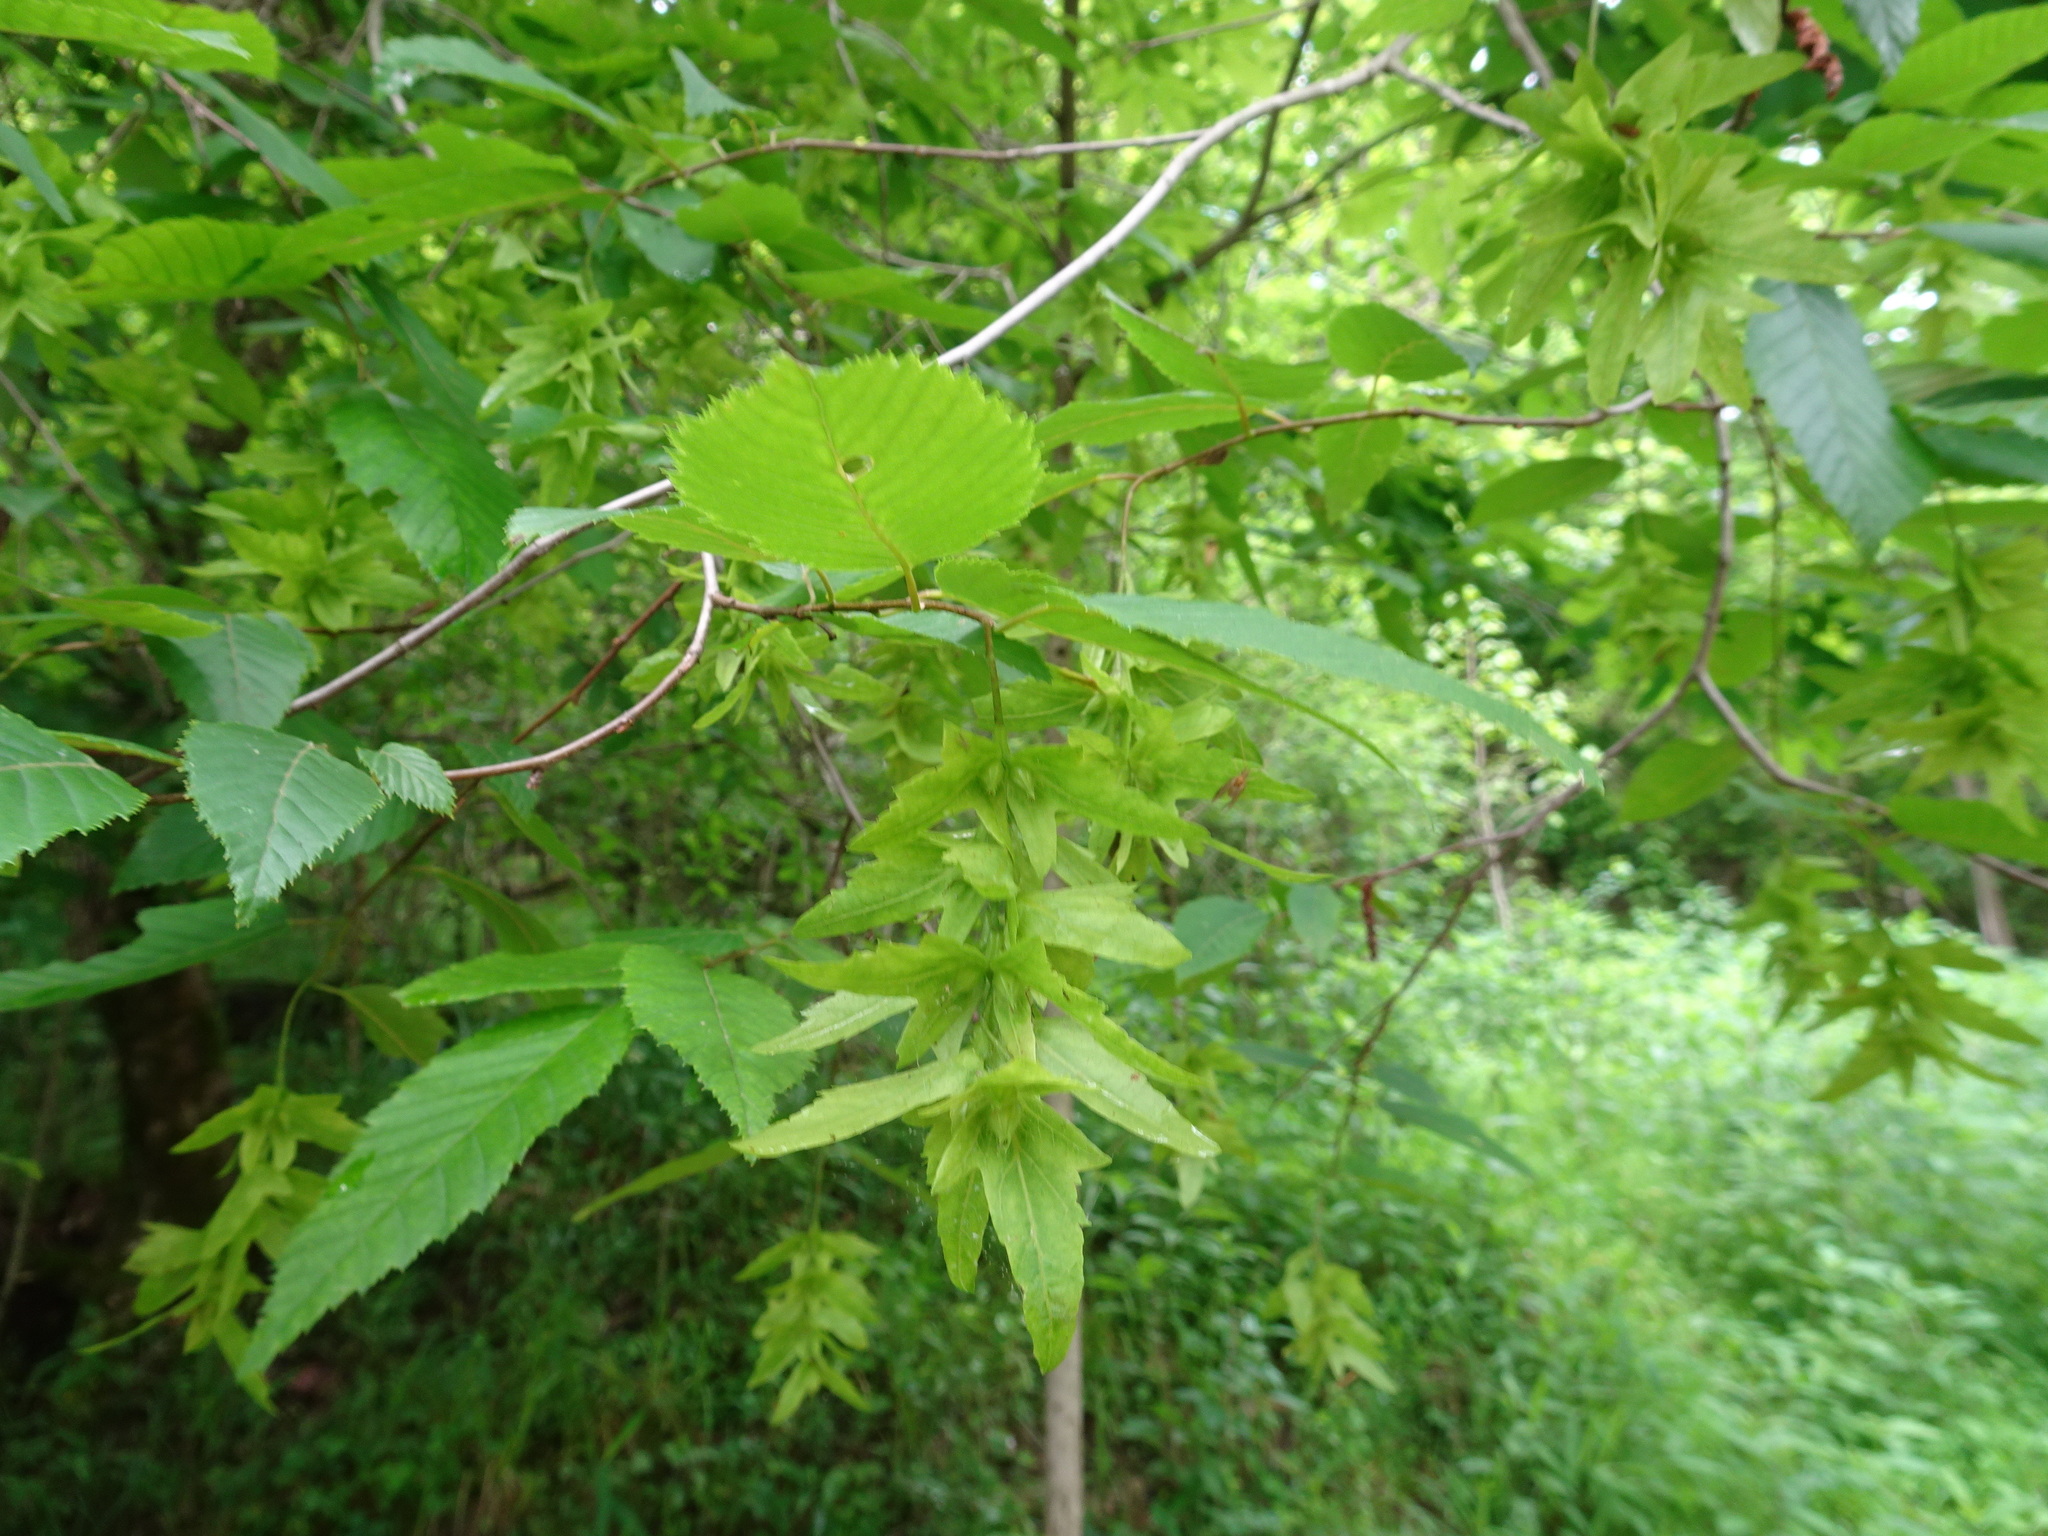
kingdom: Plantae
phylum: Tracheophyta
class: Magnoliopsida
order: Fagales
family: Betulaceae
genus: Carpinus
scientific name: Carpinus caroliniana
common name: American hornbeam
